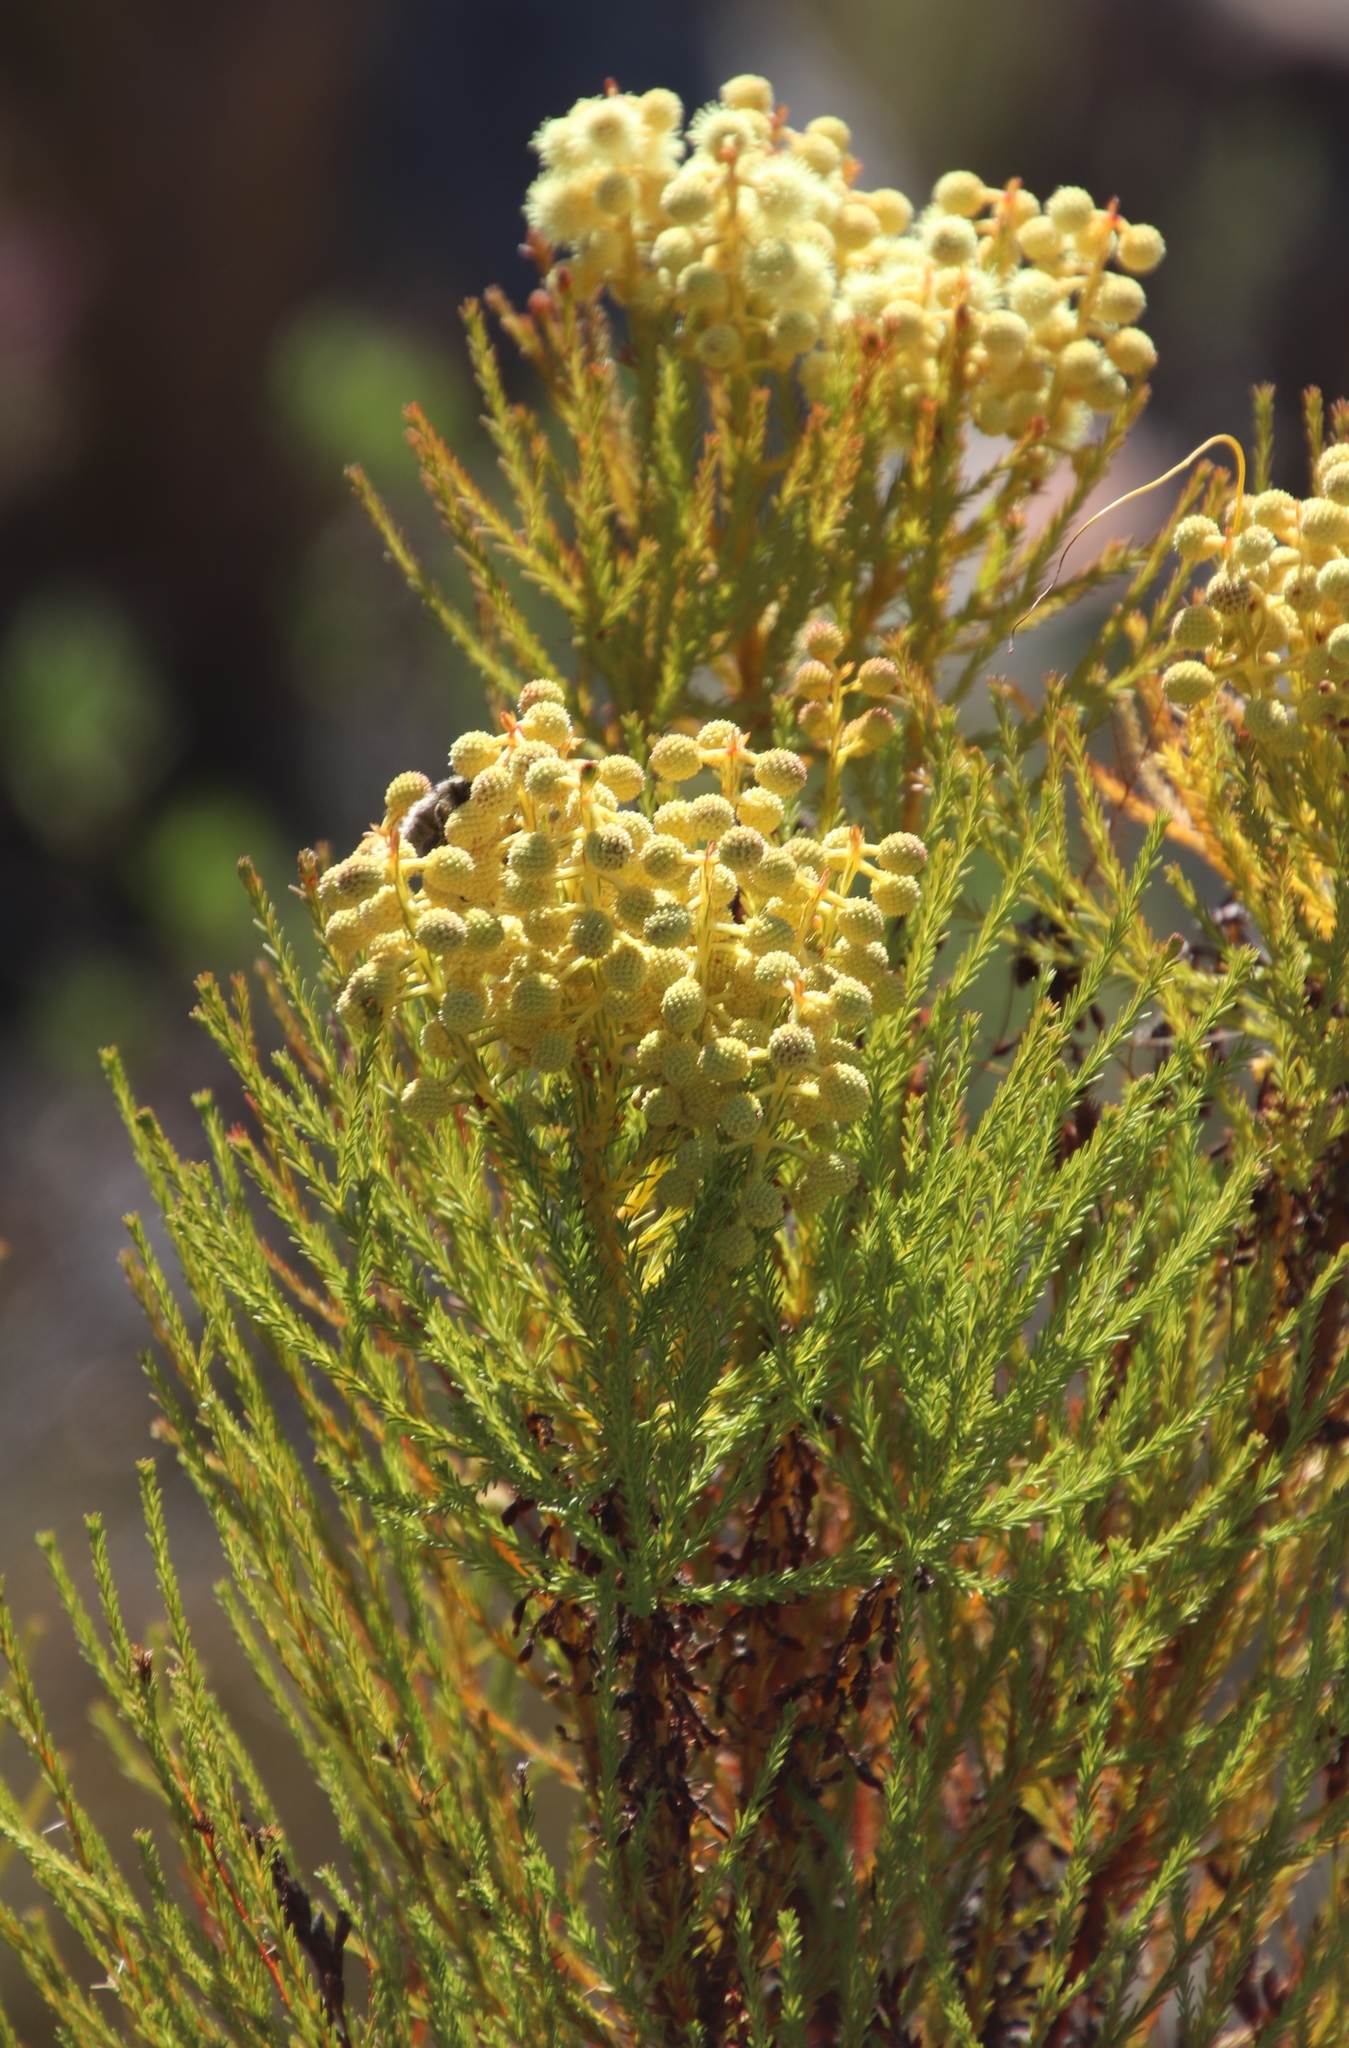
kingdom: Plantae
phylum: Tracheophyta
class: Magnoliopsida
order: Bruniales
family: Bruniaceae
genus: Berzelia
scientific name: Berzelia lanuginosa
